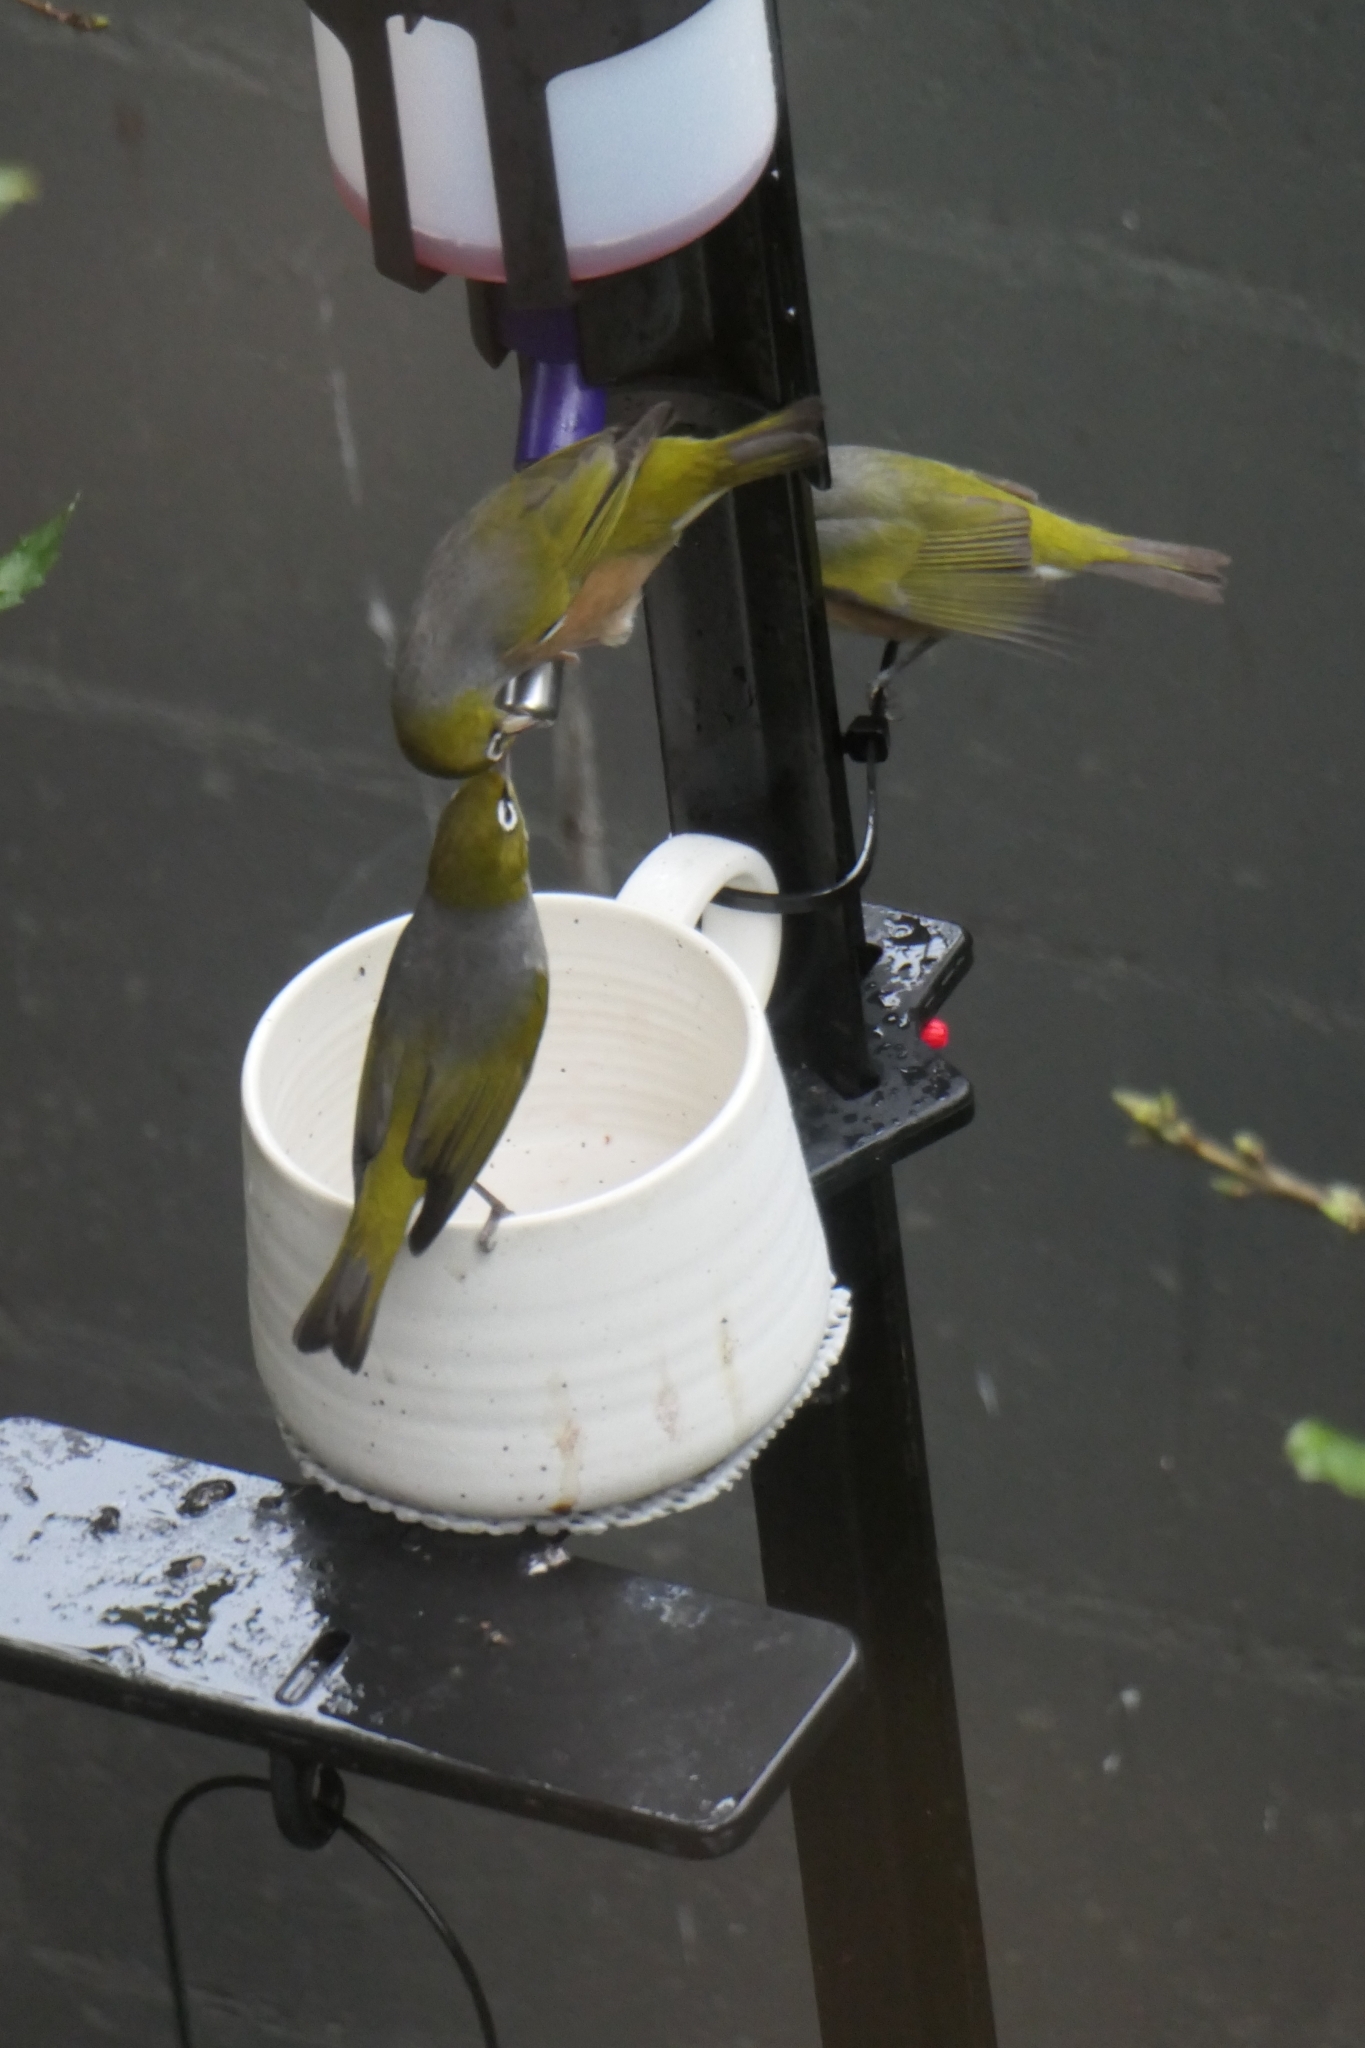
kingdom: Animalia
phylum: Chordata
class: Aves
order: Passeriformes
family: Zosteropidae
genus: Zosterops
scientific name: Zosterops lateralis
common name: Silvereye
